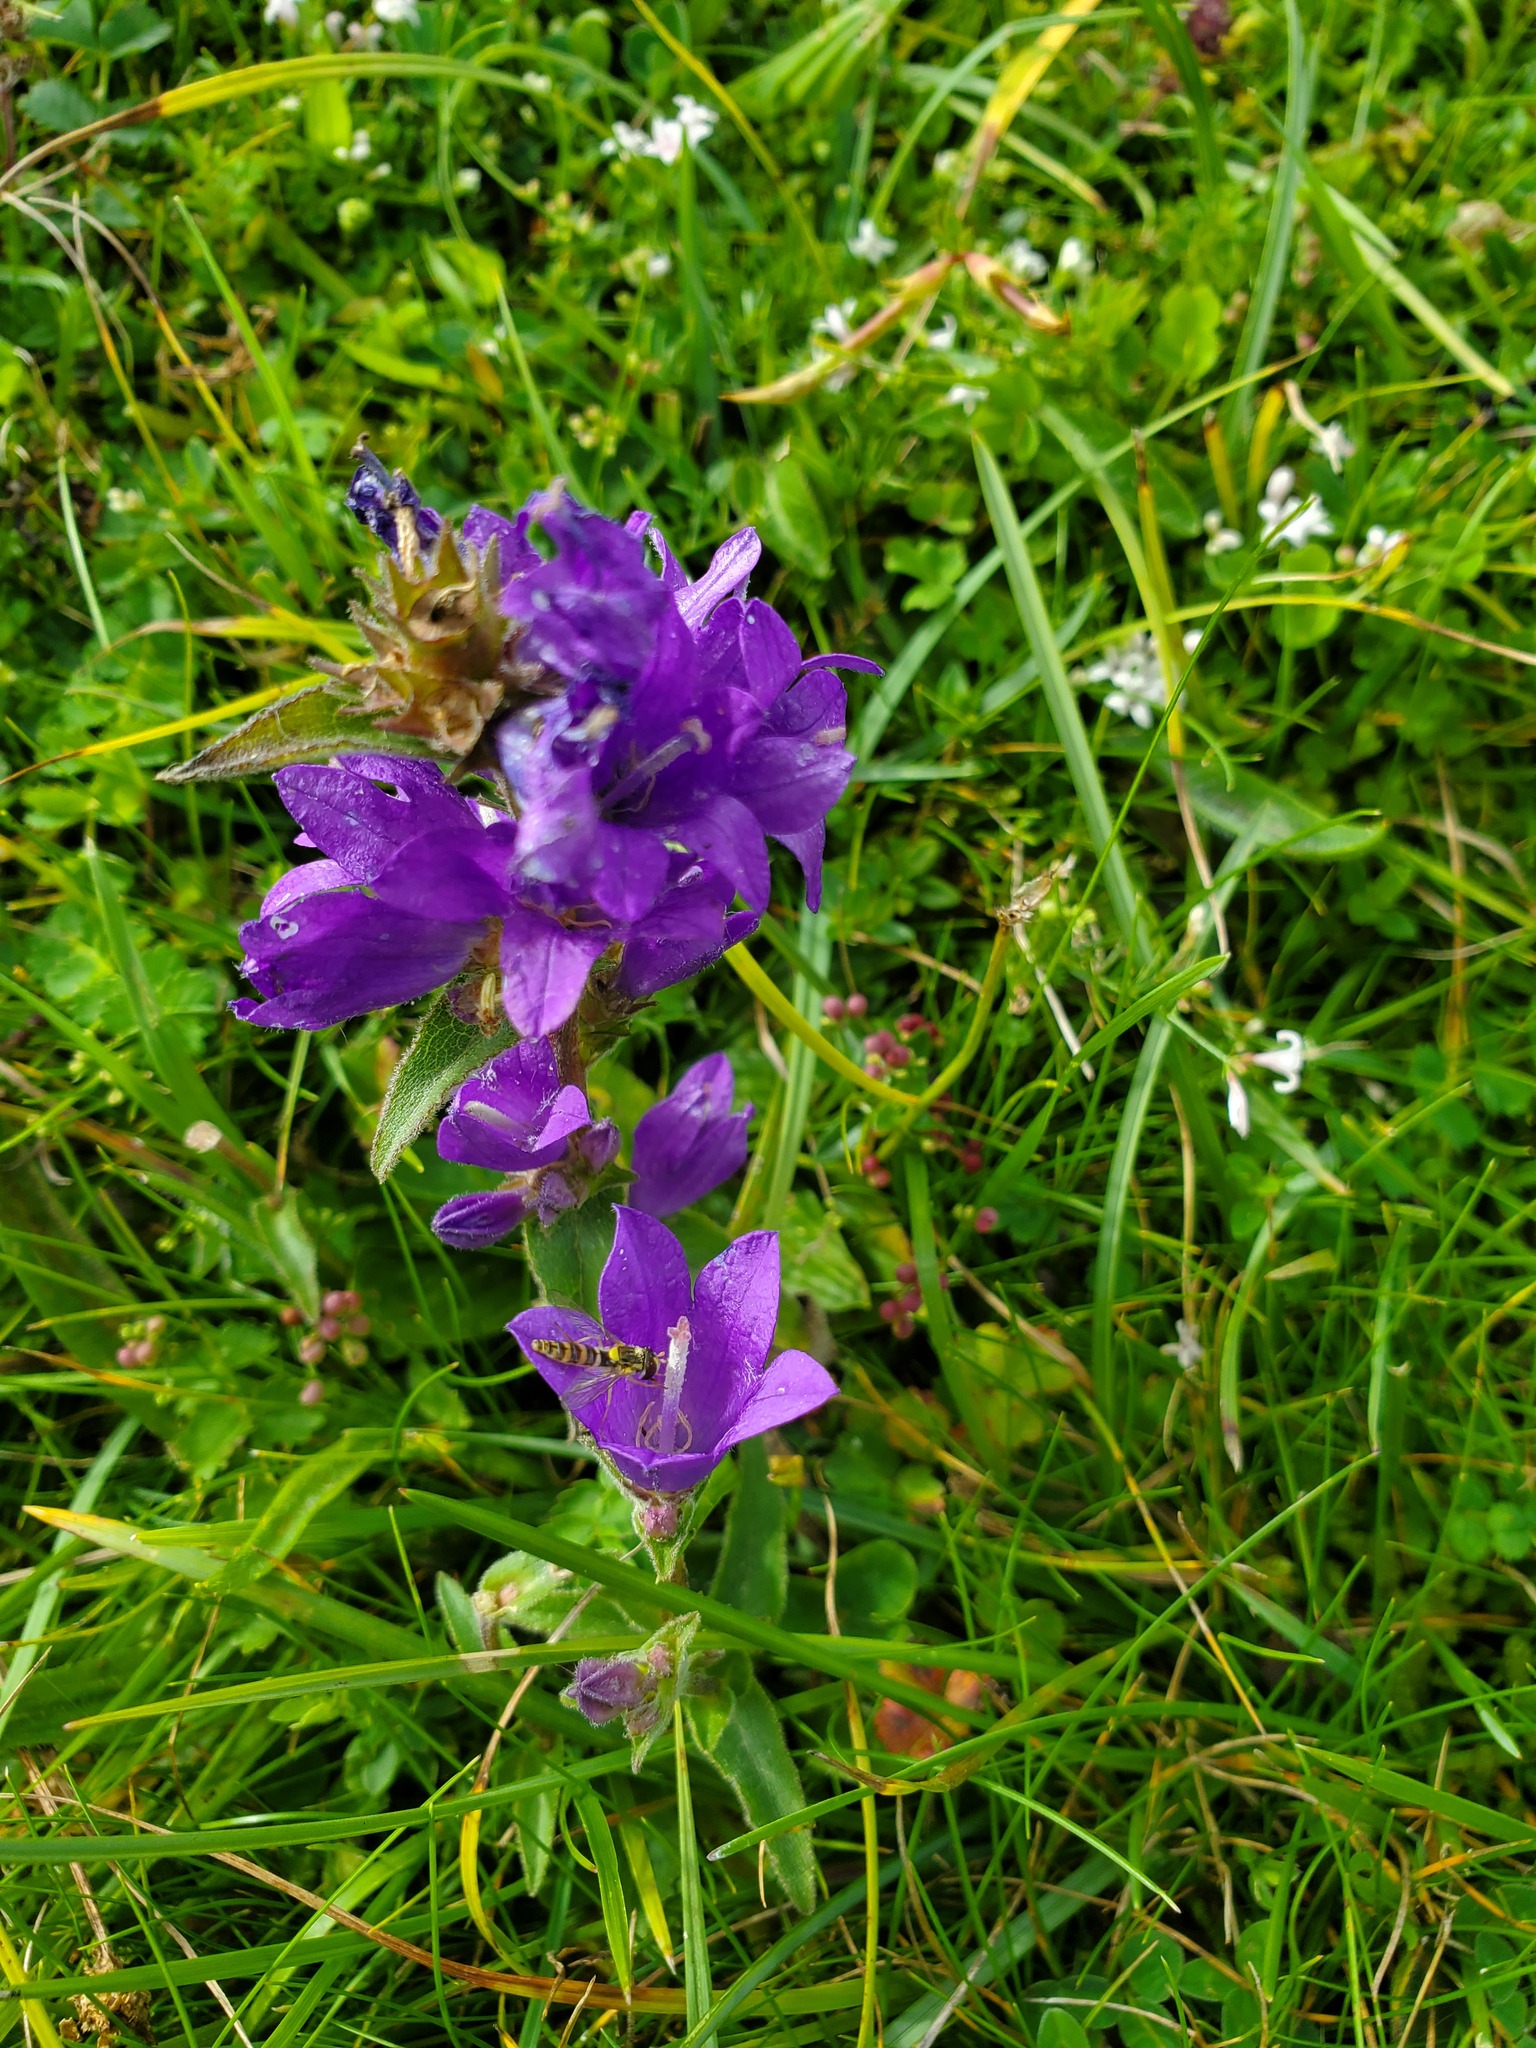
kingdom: Plantae
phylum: Tracheophyta
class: Magnoliopsida
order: Asterales
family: Campanulaceae
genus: Campanula
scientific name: Campanula glomerata
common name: Clustered bellflower
